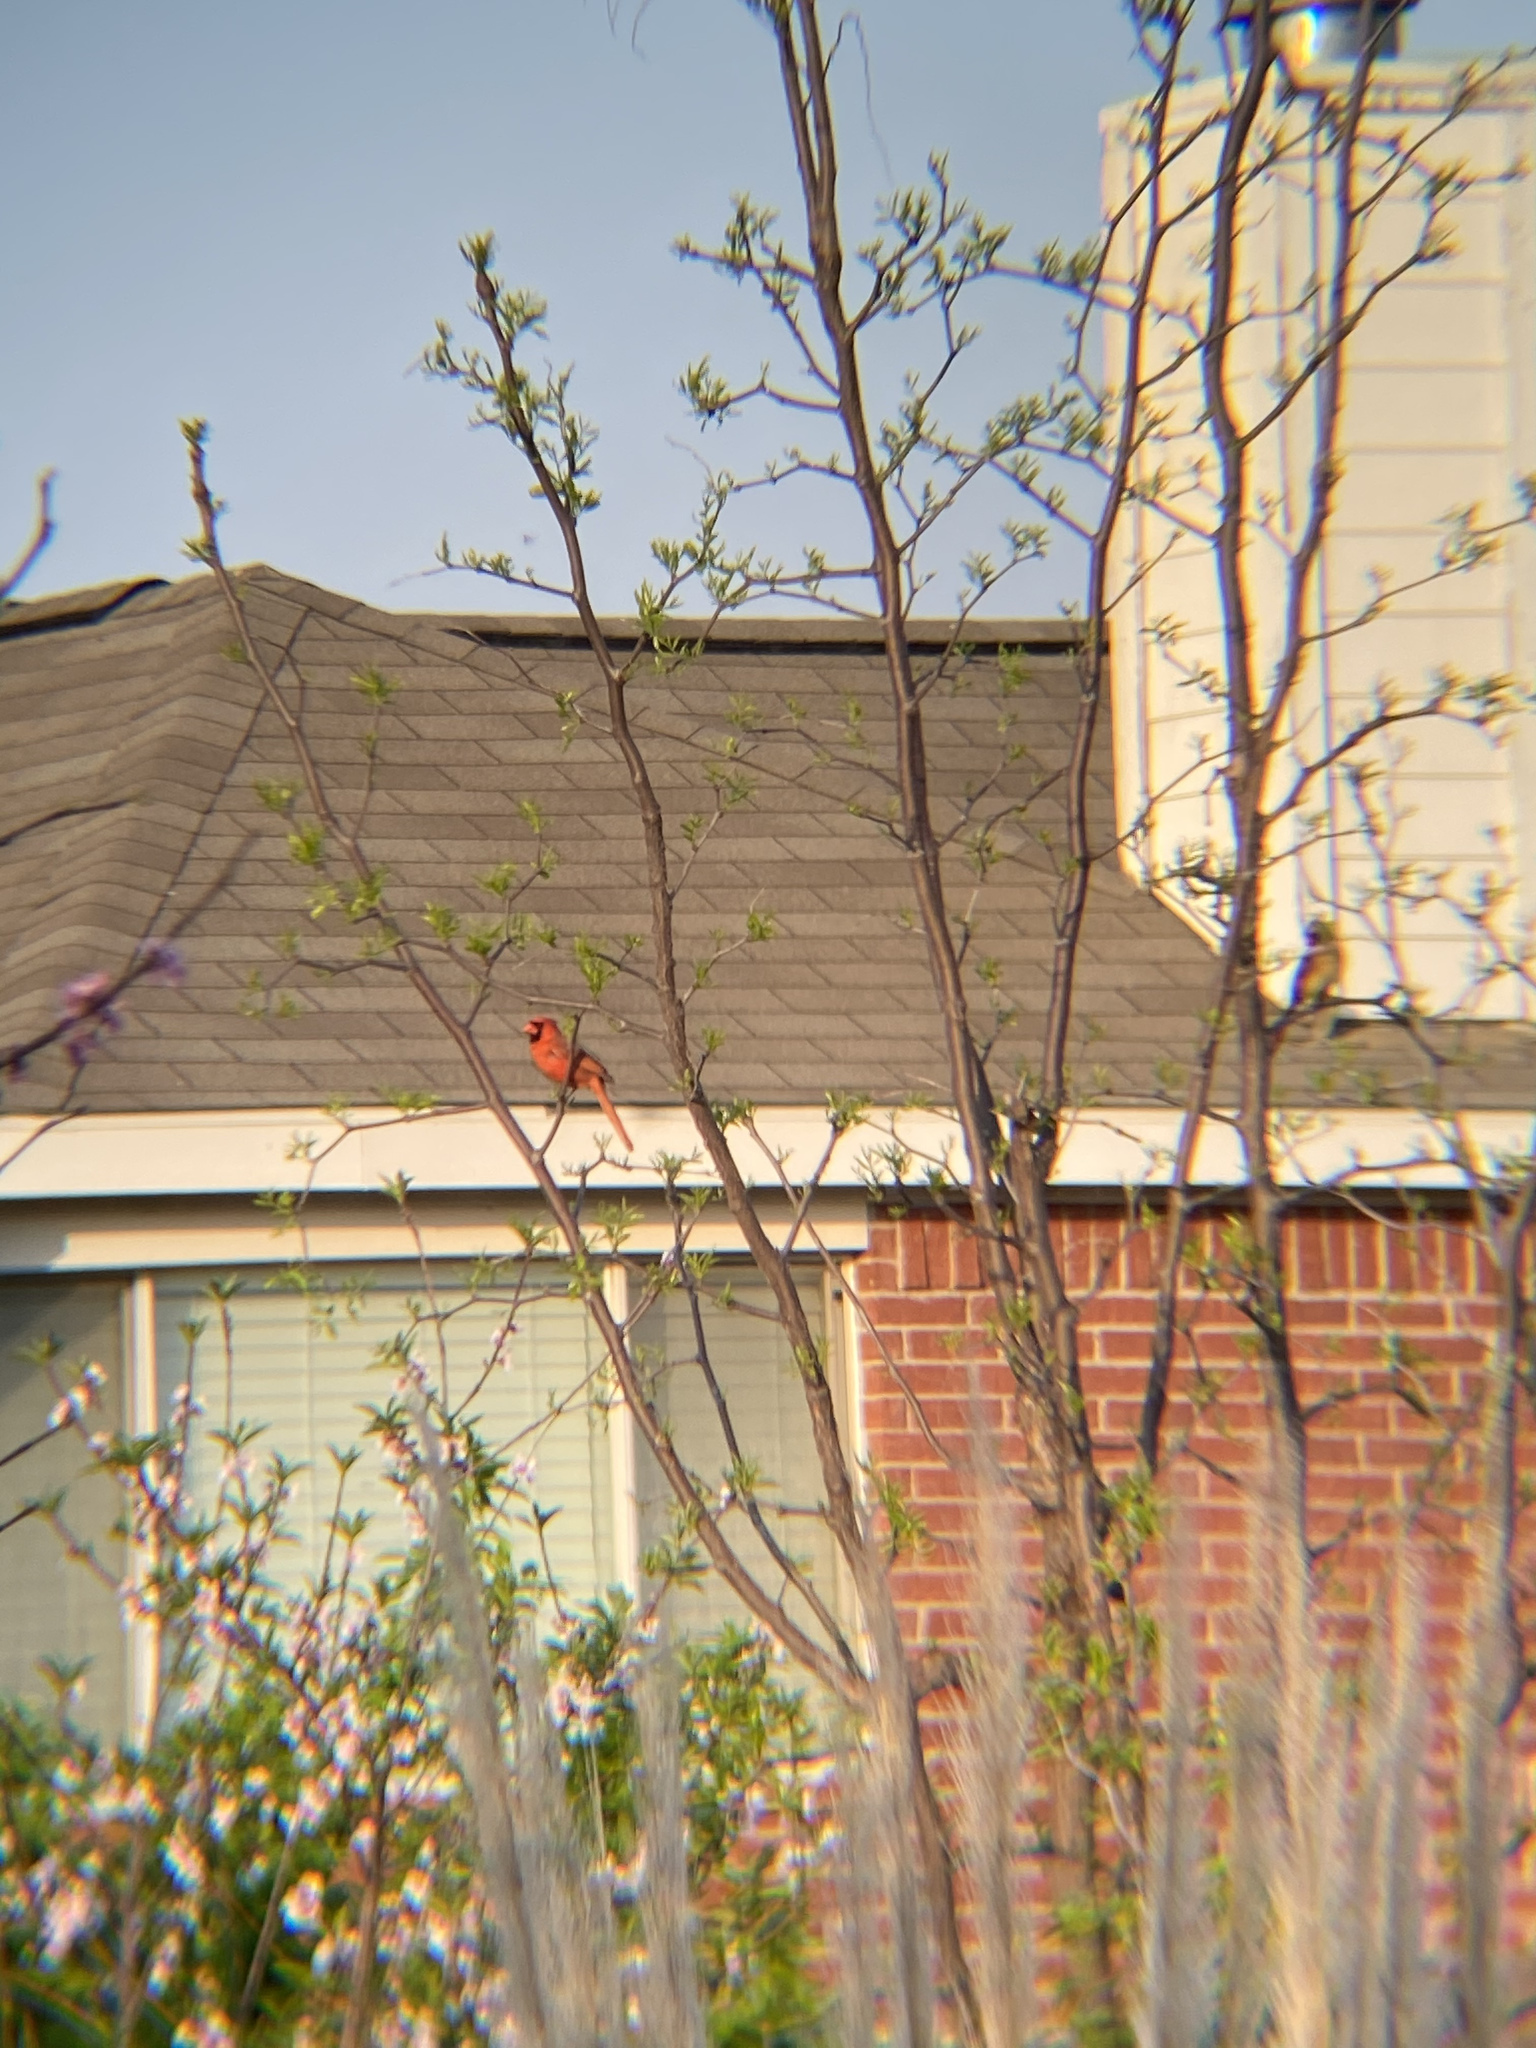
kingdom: Animalia
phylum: Chordata
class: Aves
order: Passeriformes
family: Cardinalidae
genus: Cardinalis
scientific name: Cardinalis cardinalis
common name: Northern cardinal
